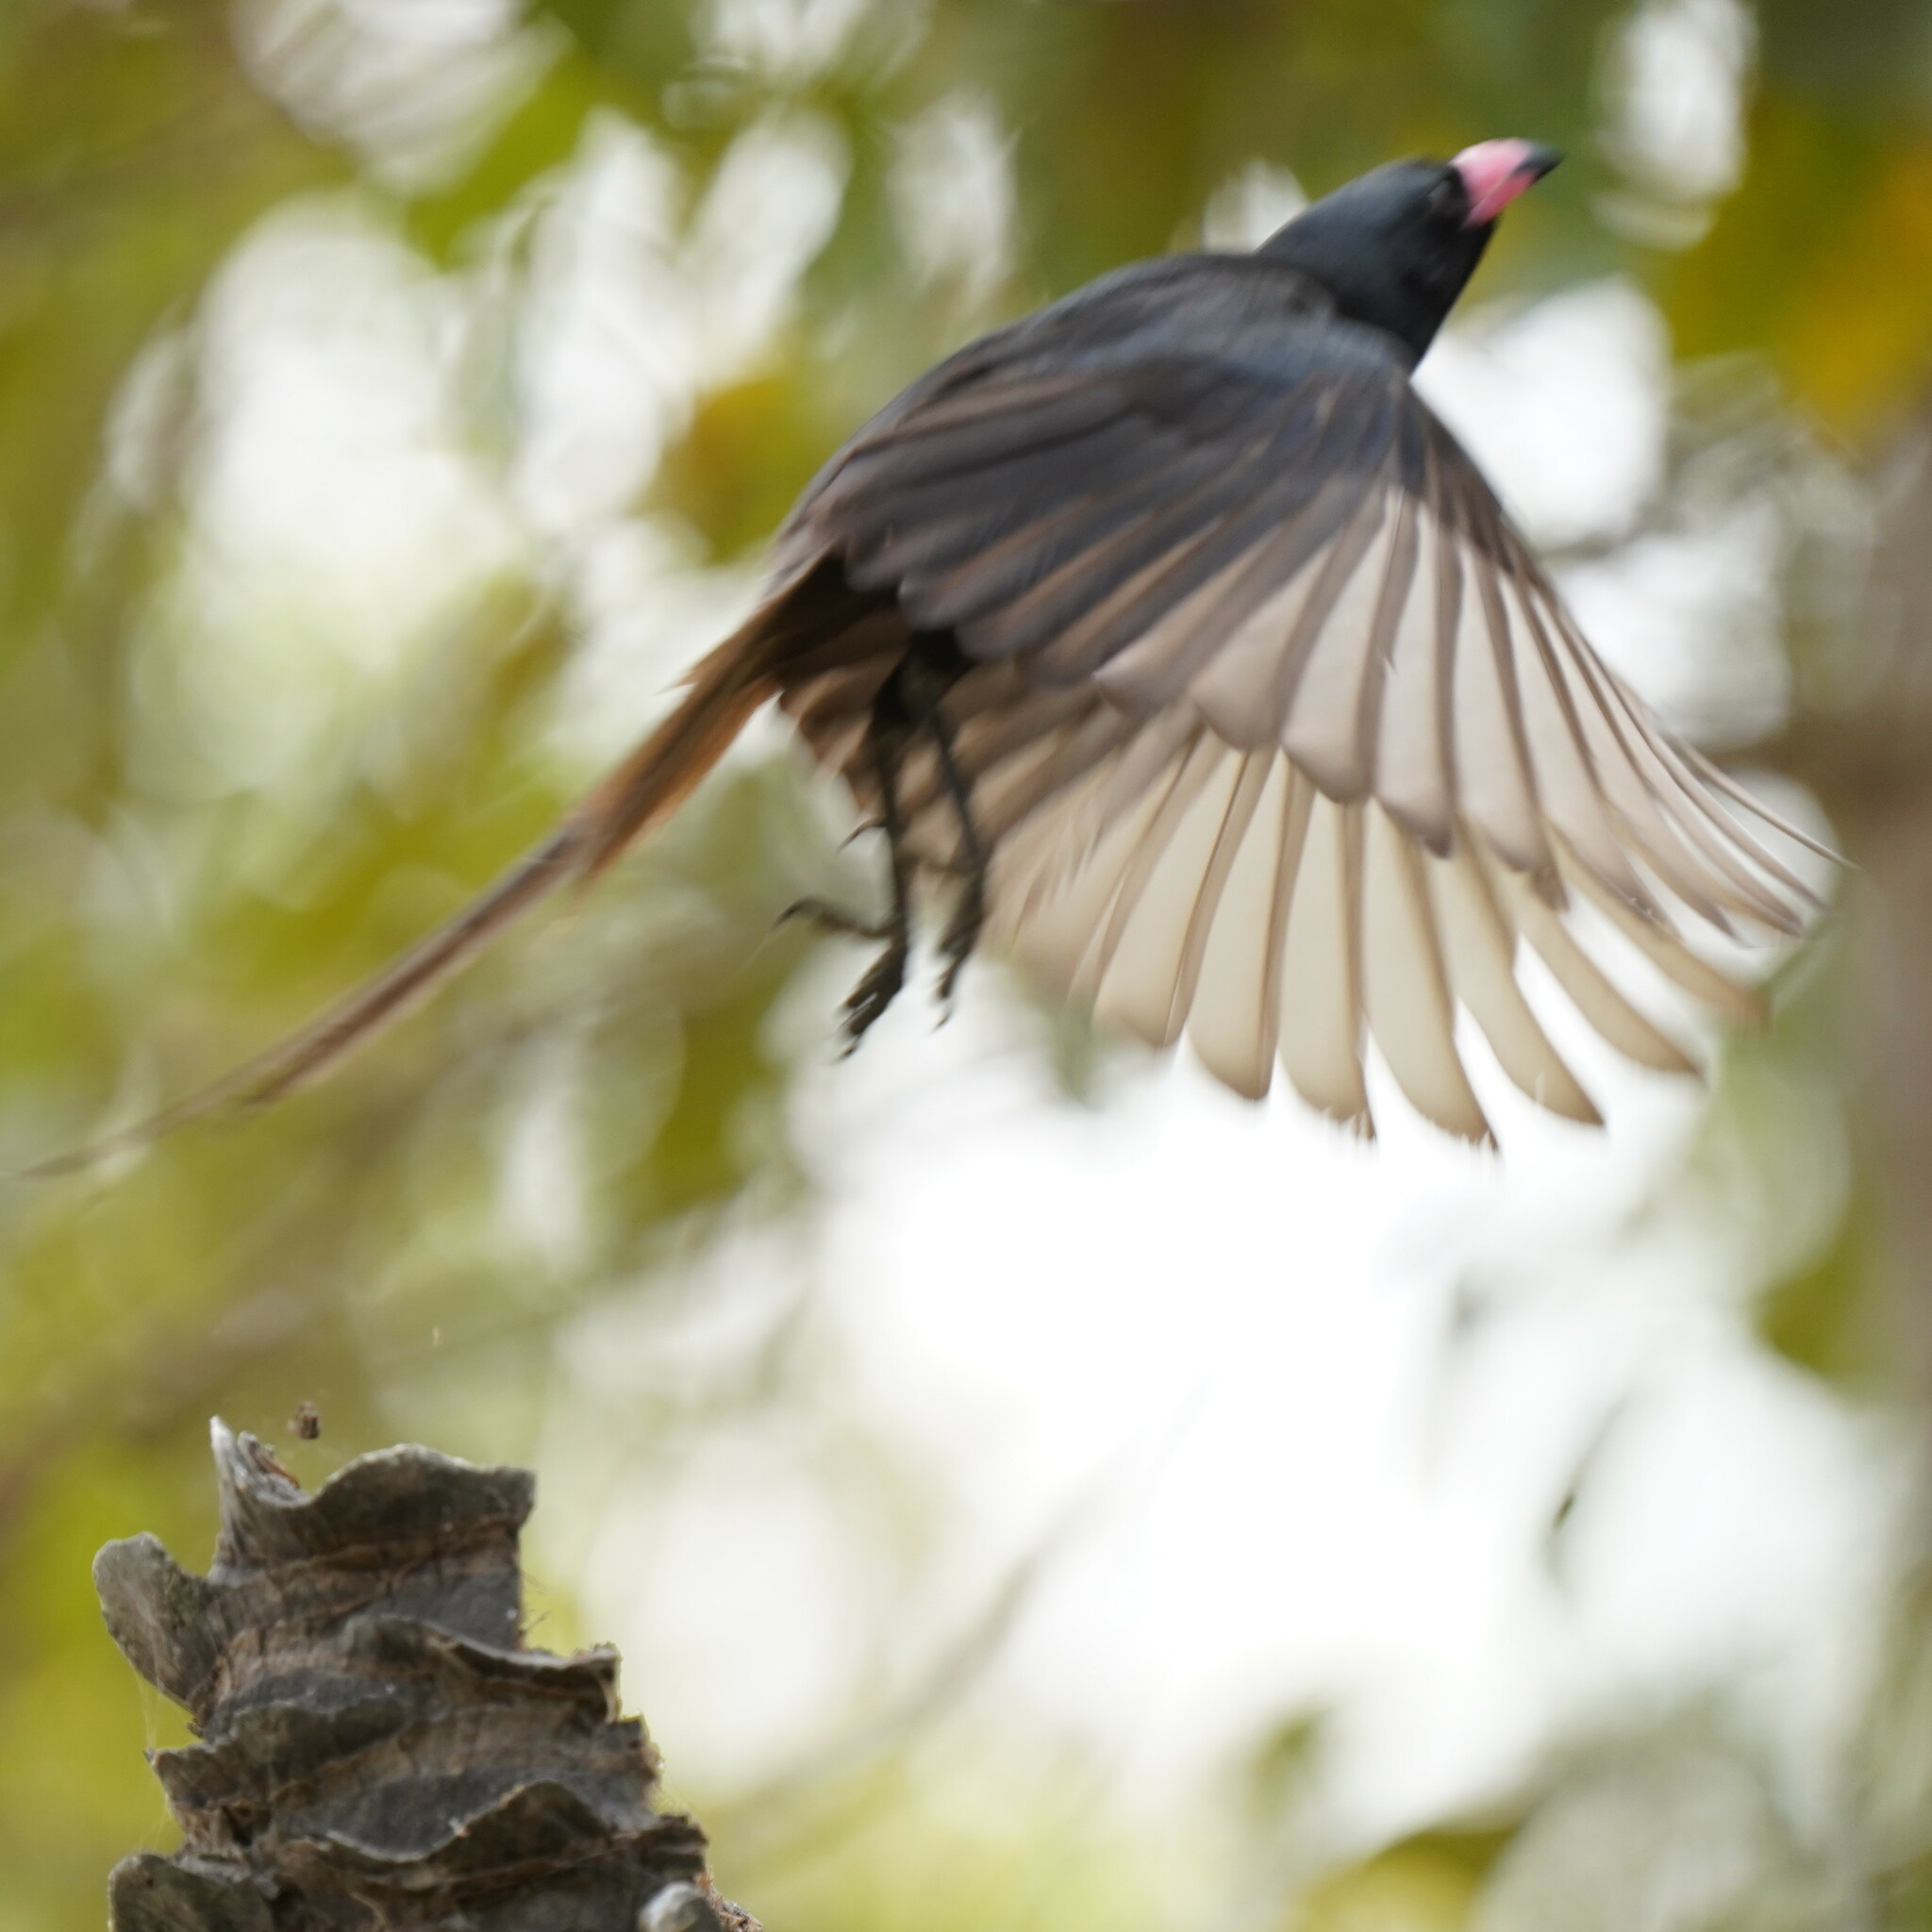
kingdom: Animalia
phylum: Chordata
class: Aves
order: Passeriformes
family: Corvidae
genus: Ptilostomus
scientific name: Ptilostomus afer
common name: Piapiac
